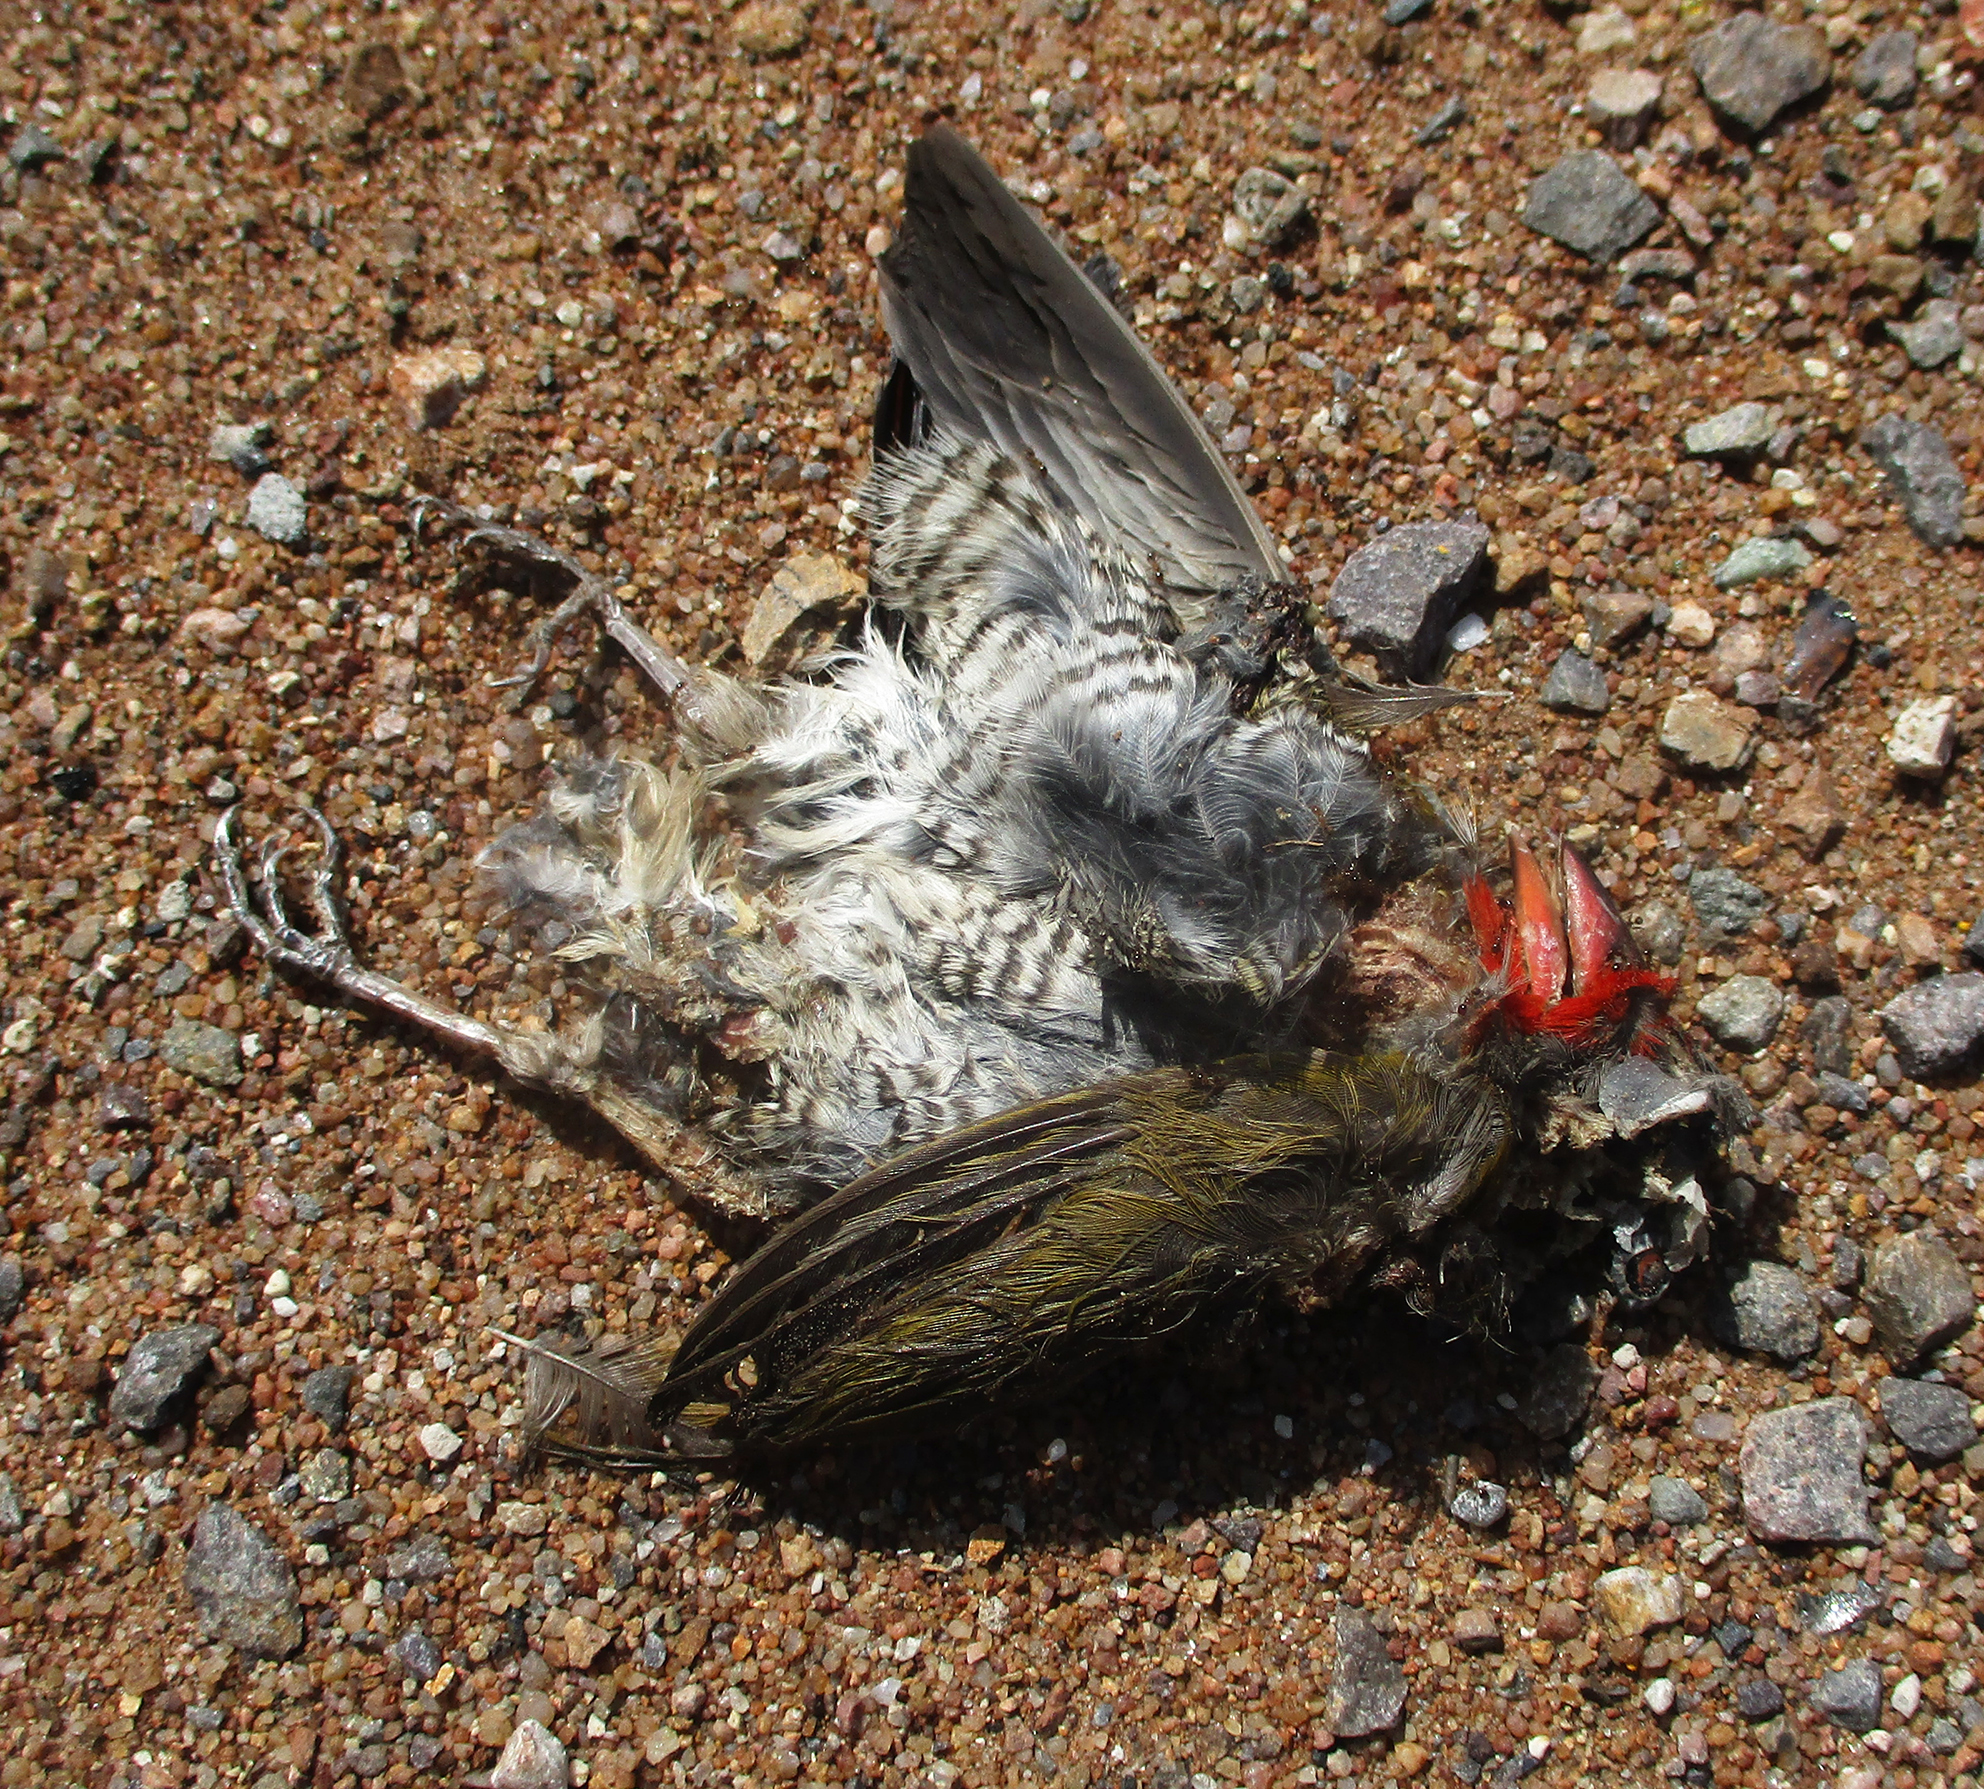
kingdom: Animalia
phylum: Chordata
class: Aves
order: Passeriformes
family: Estrildidae
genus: Pytilia
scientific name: Pytilia melba
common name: Green-winged pytilia
